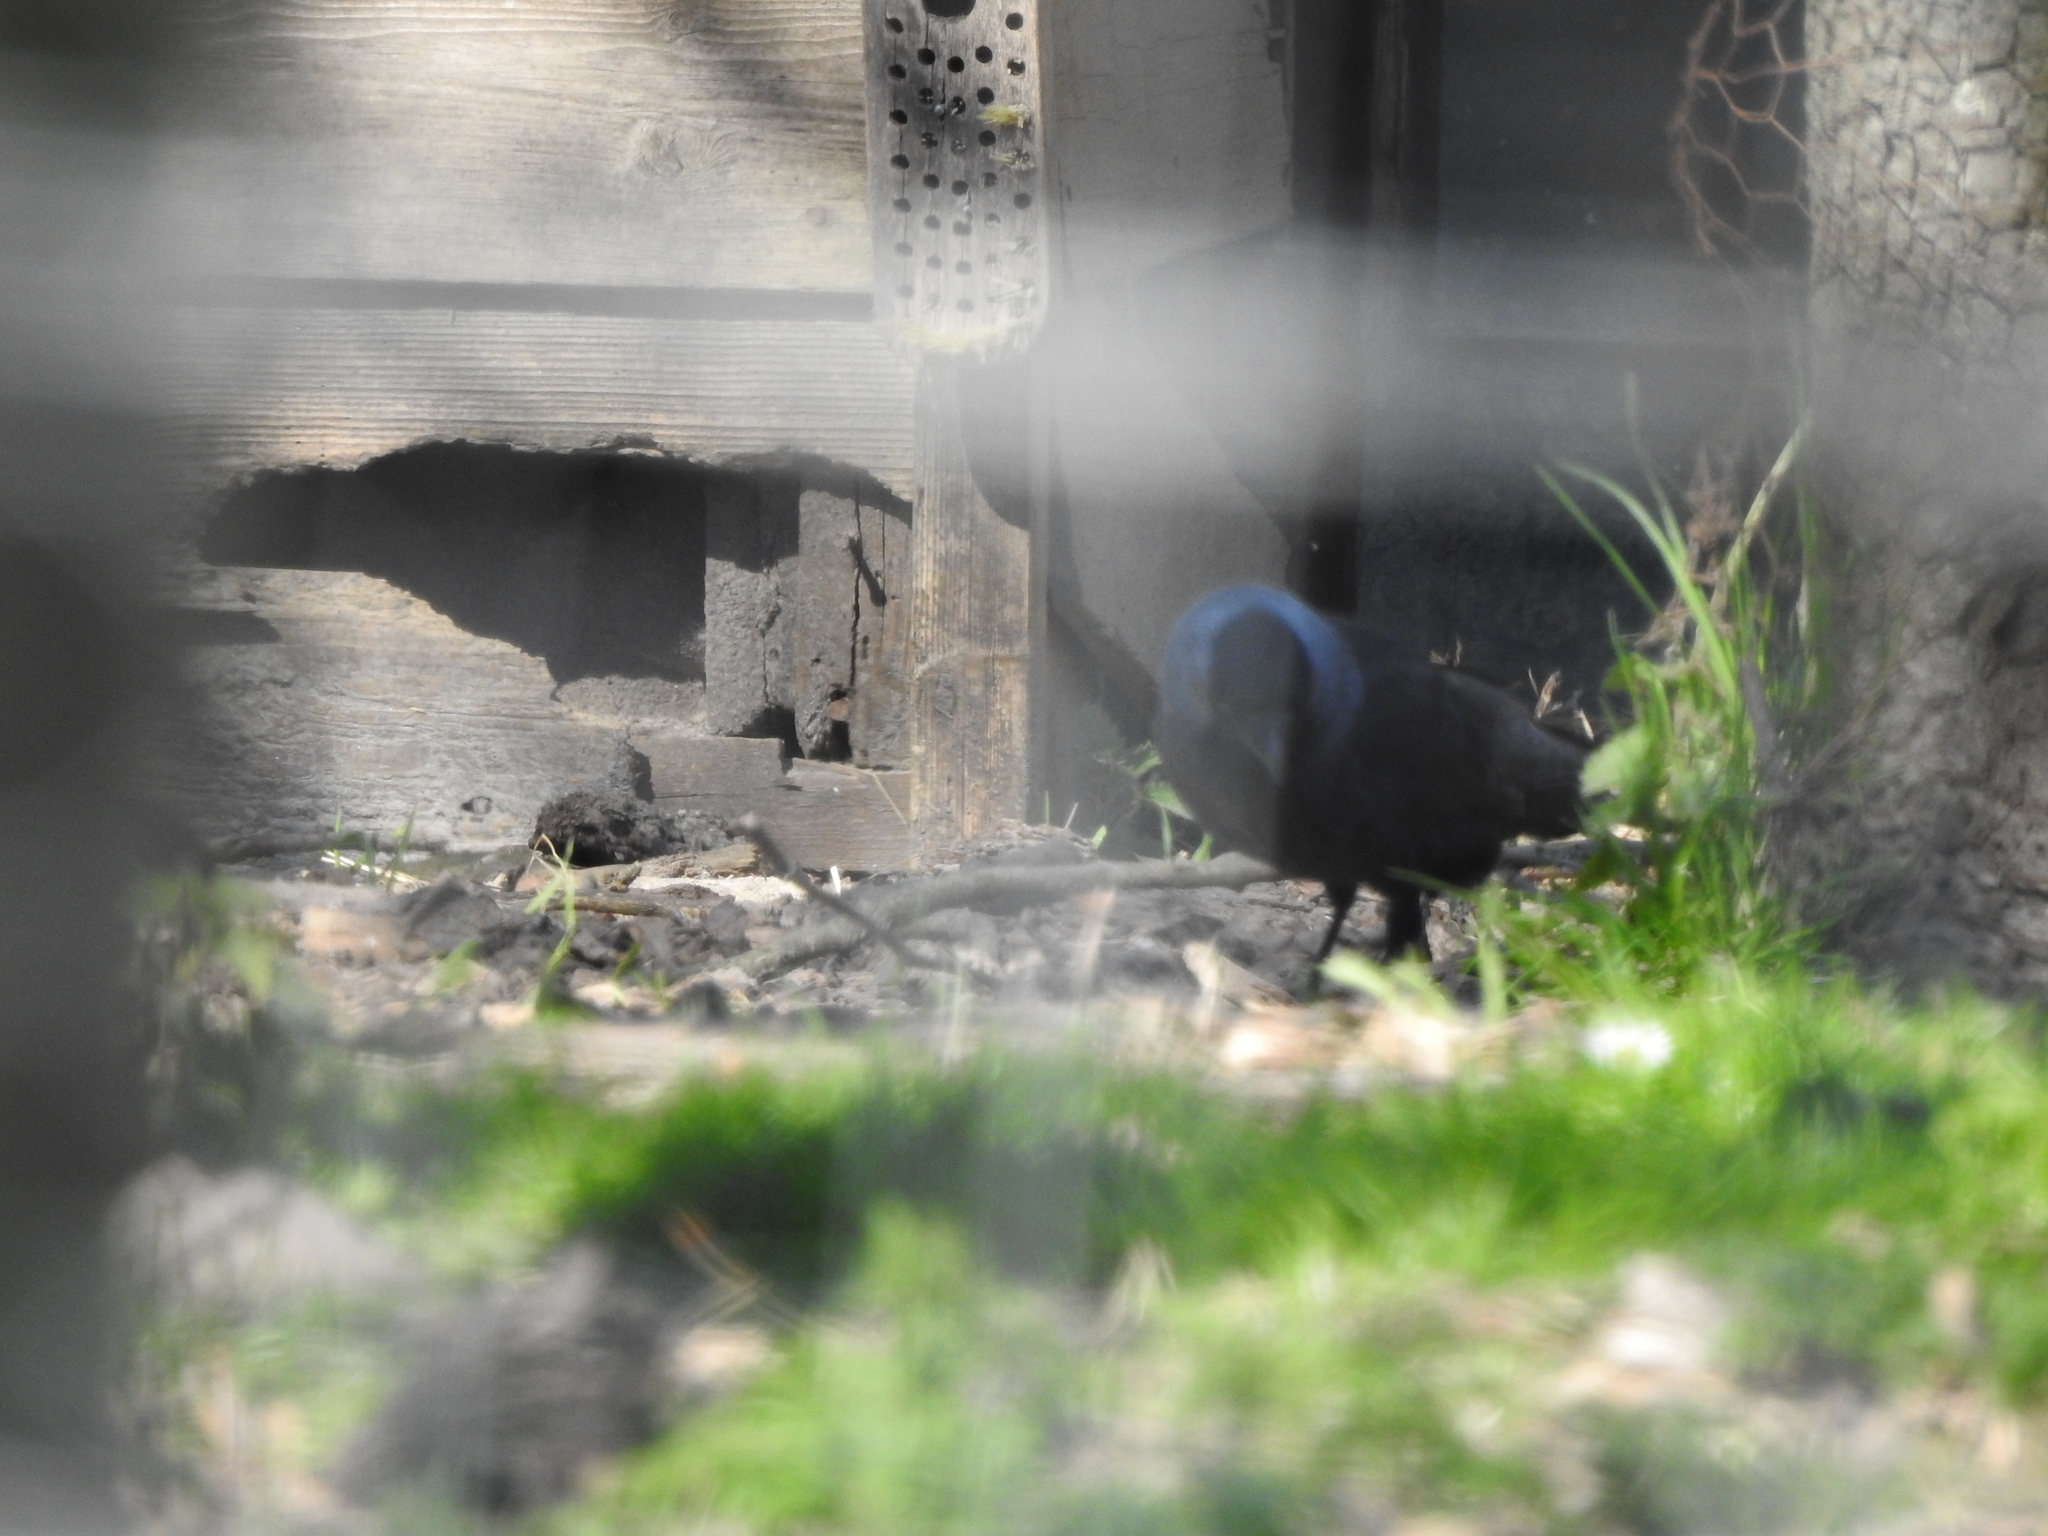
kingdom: Animalia
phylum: Chordata
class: Aves
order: Passeriformes
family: Corvidae
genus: Coloeus
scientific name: Coloeus monedula
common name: Western jackdaw
